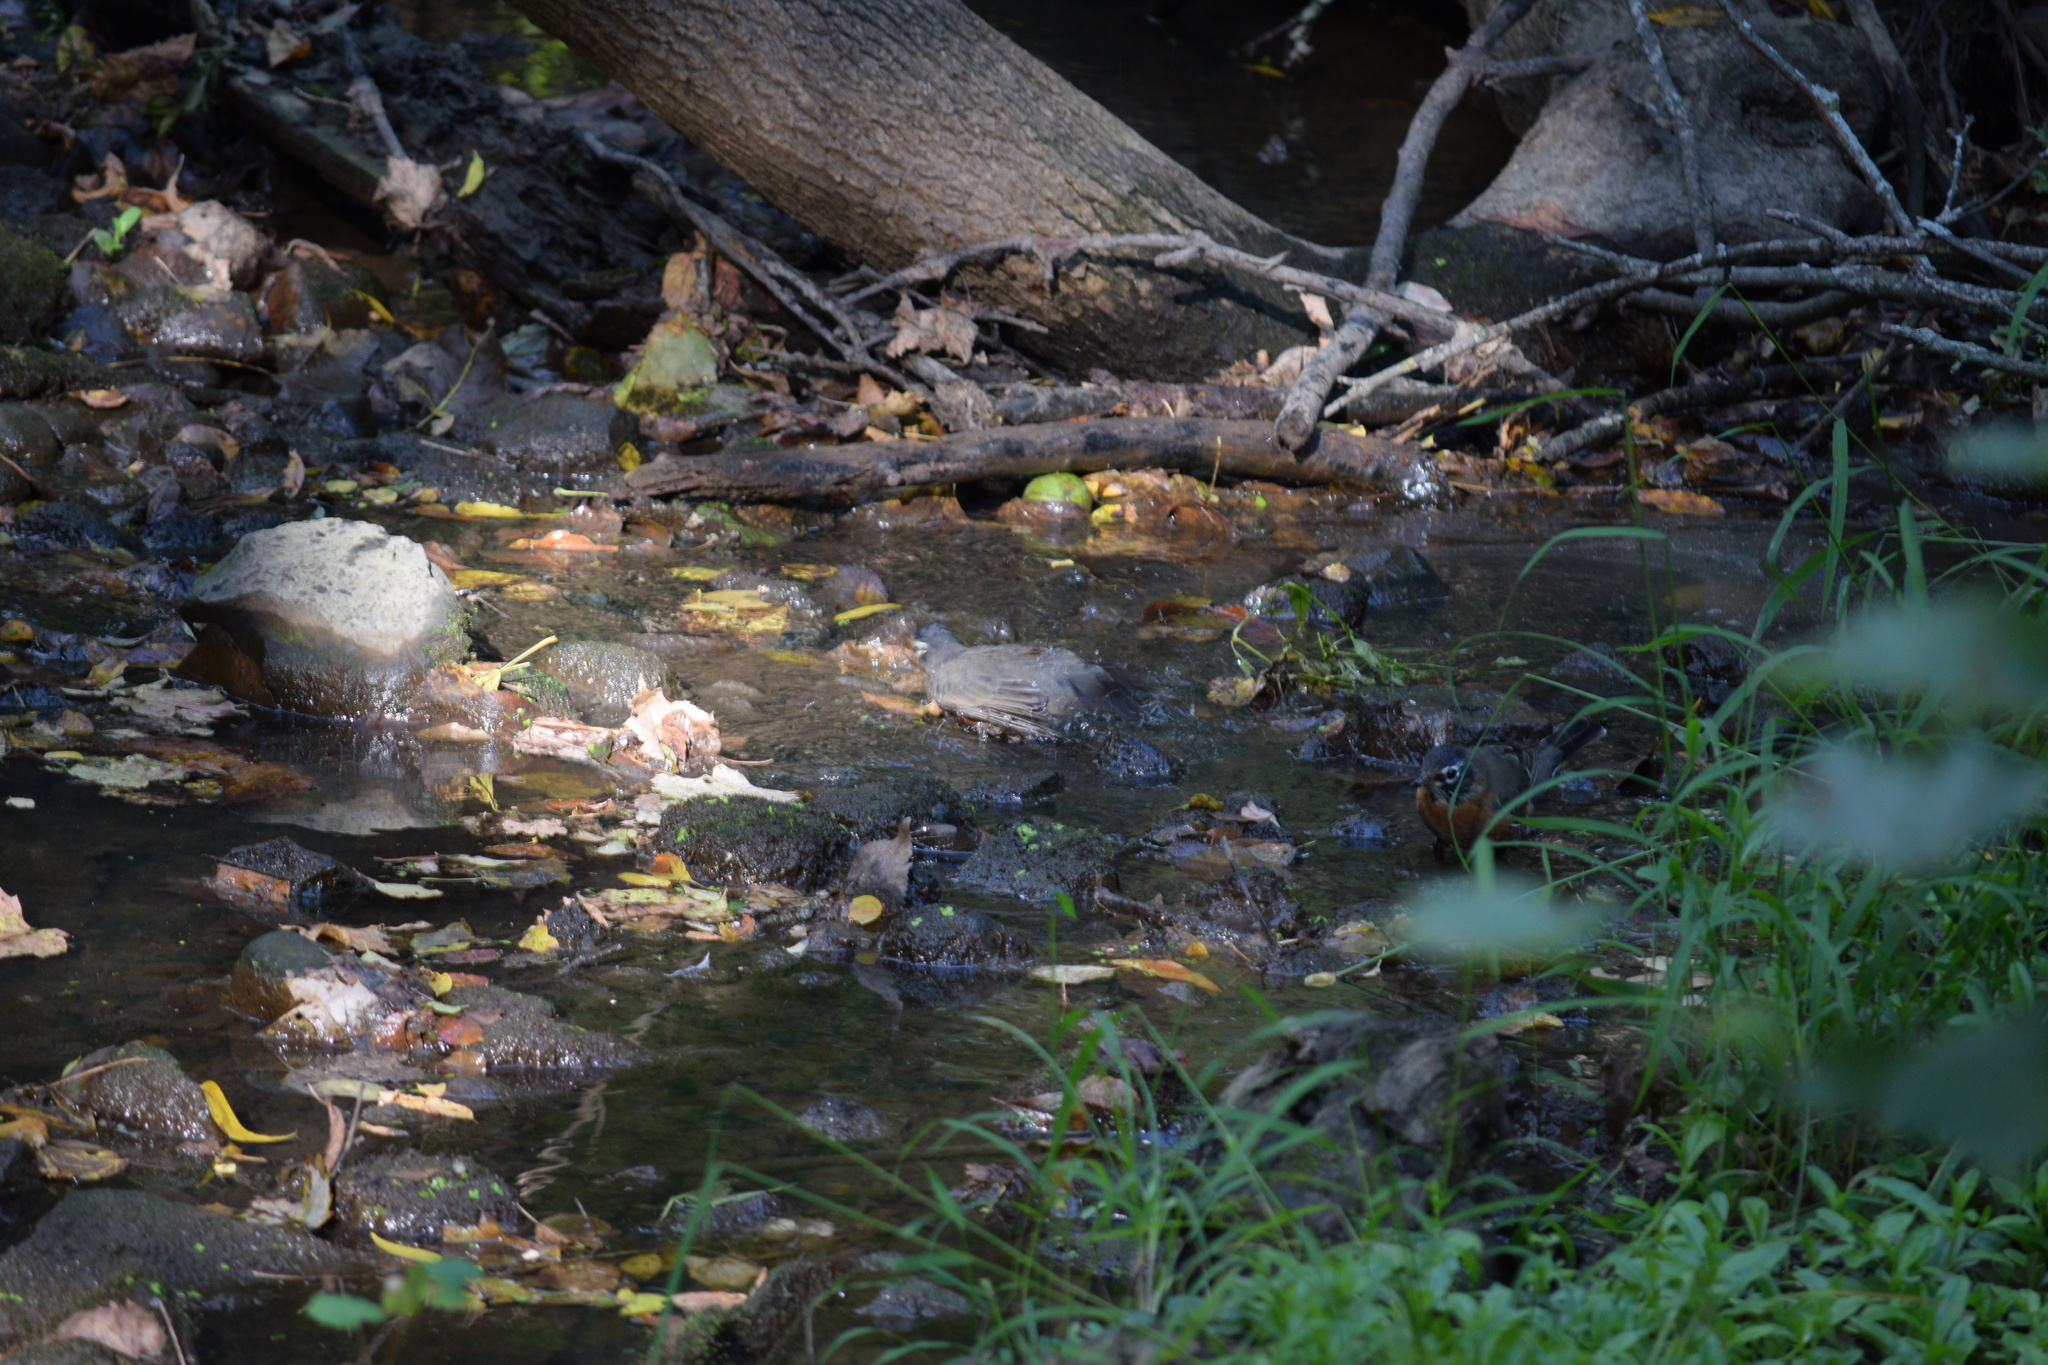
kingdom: Animalia
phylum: Chordata
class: Aves
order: Passeriformes
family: Turdidae
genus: Turdus
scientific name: Turdus migratorius
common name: American robin
